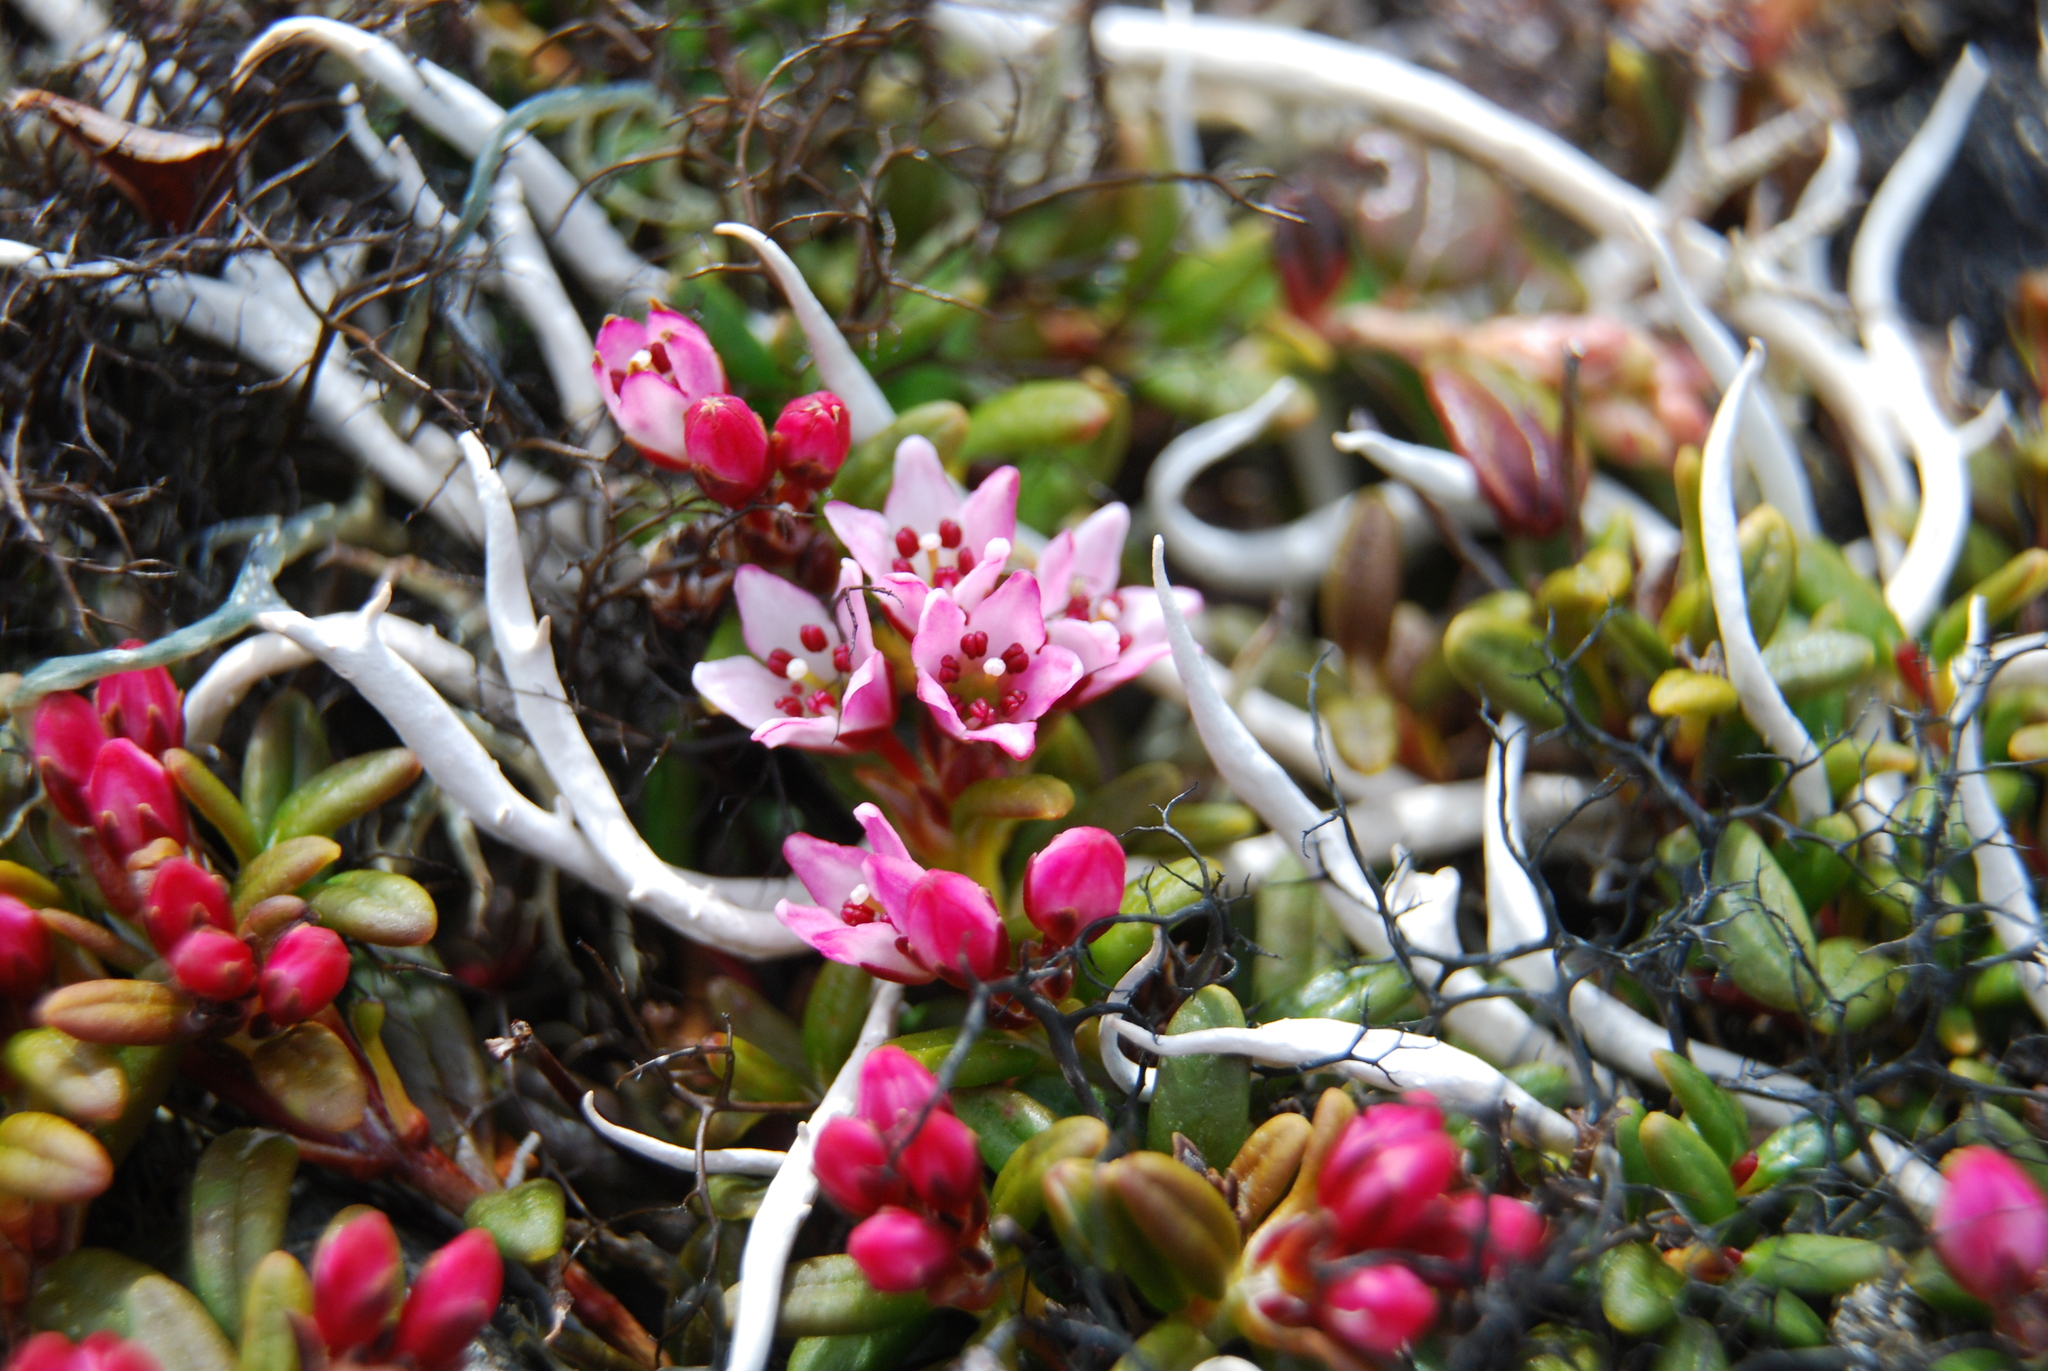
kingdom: Plantae
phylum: Tracheophyta
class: Magnoliopsida
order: Ericales
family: Ericaceae
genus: Kalmia
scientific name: Kalmia procumbens
